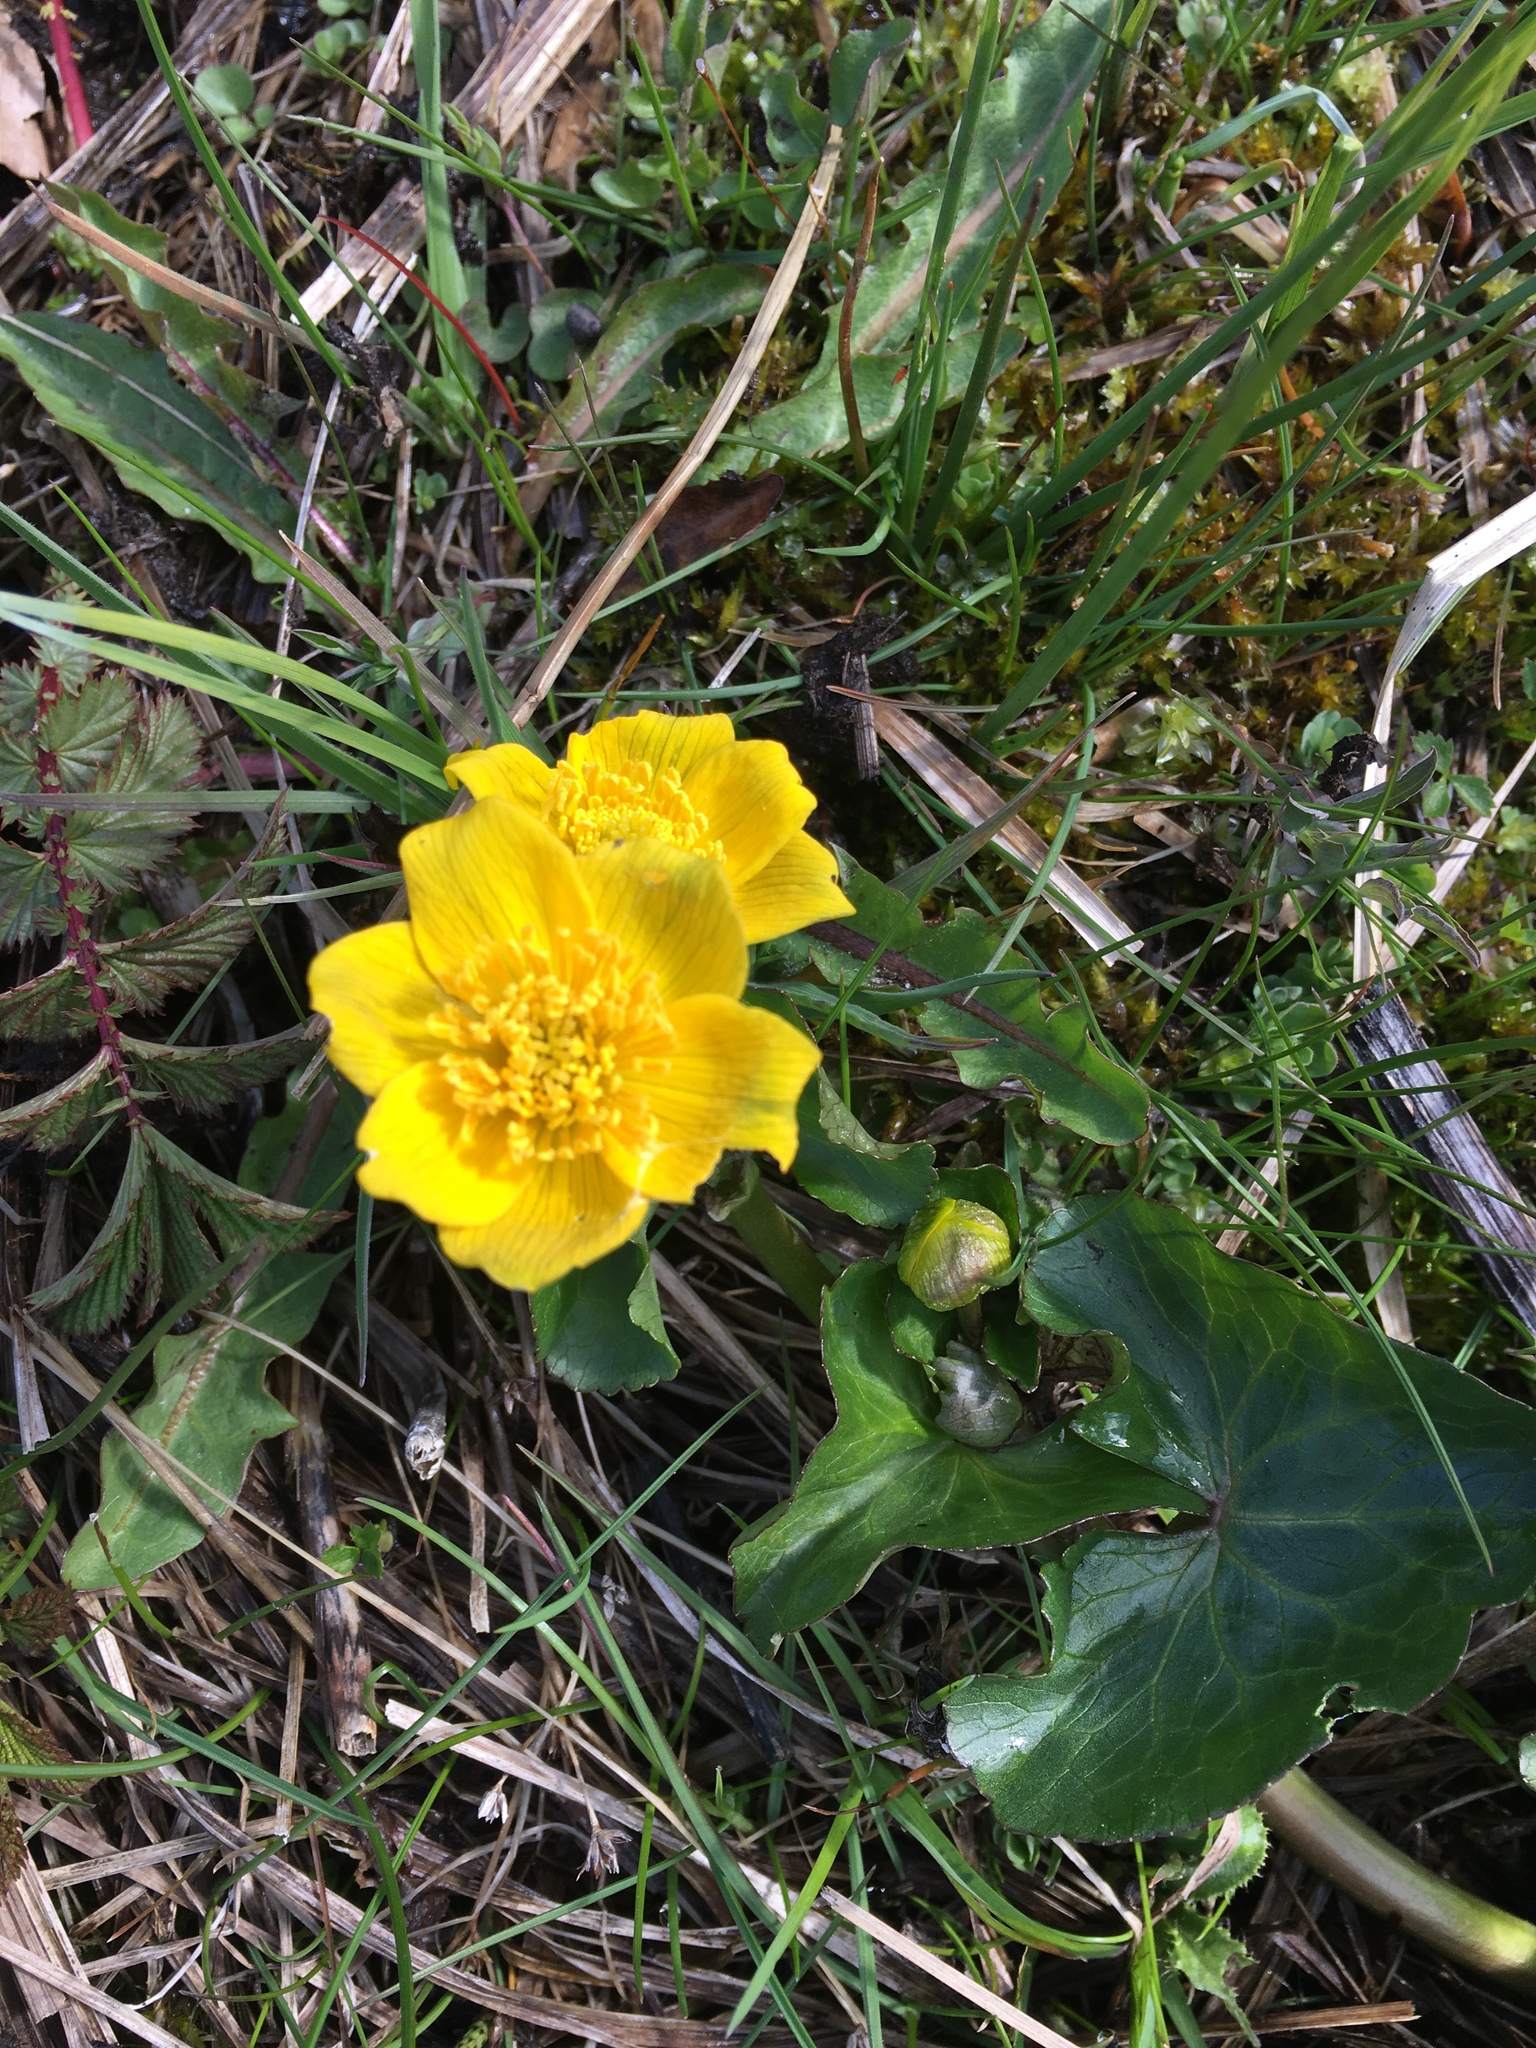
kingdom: Plantae
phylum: Tracheophyta
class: Magnoliopsida
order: Ranunculales
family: Ranunculaceae
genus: Caltha
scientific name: Caltha palustris
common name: Marsh marigold
